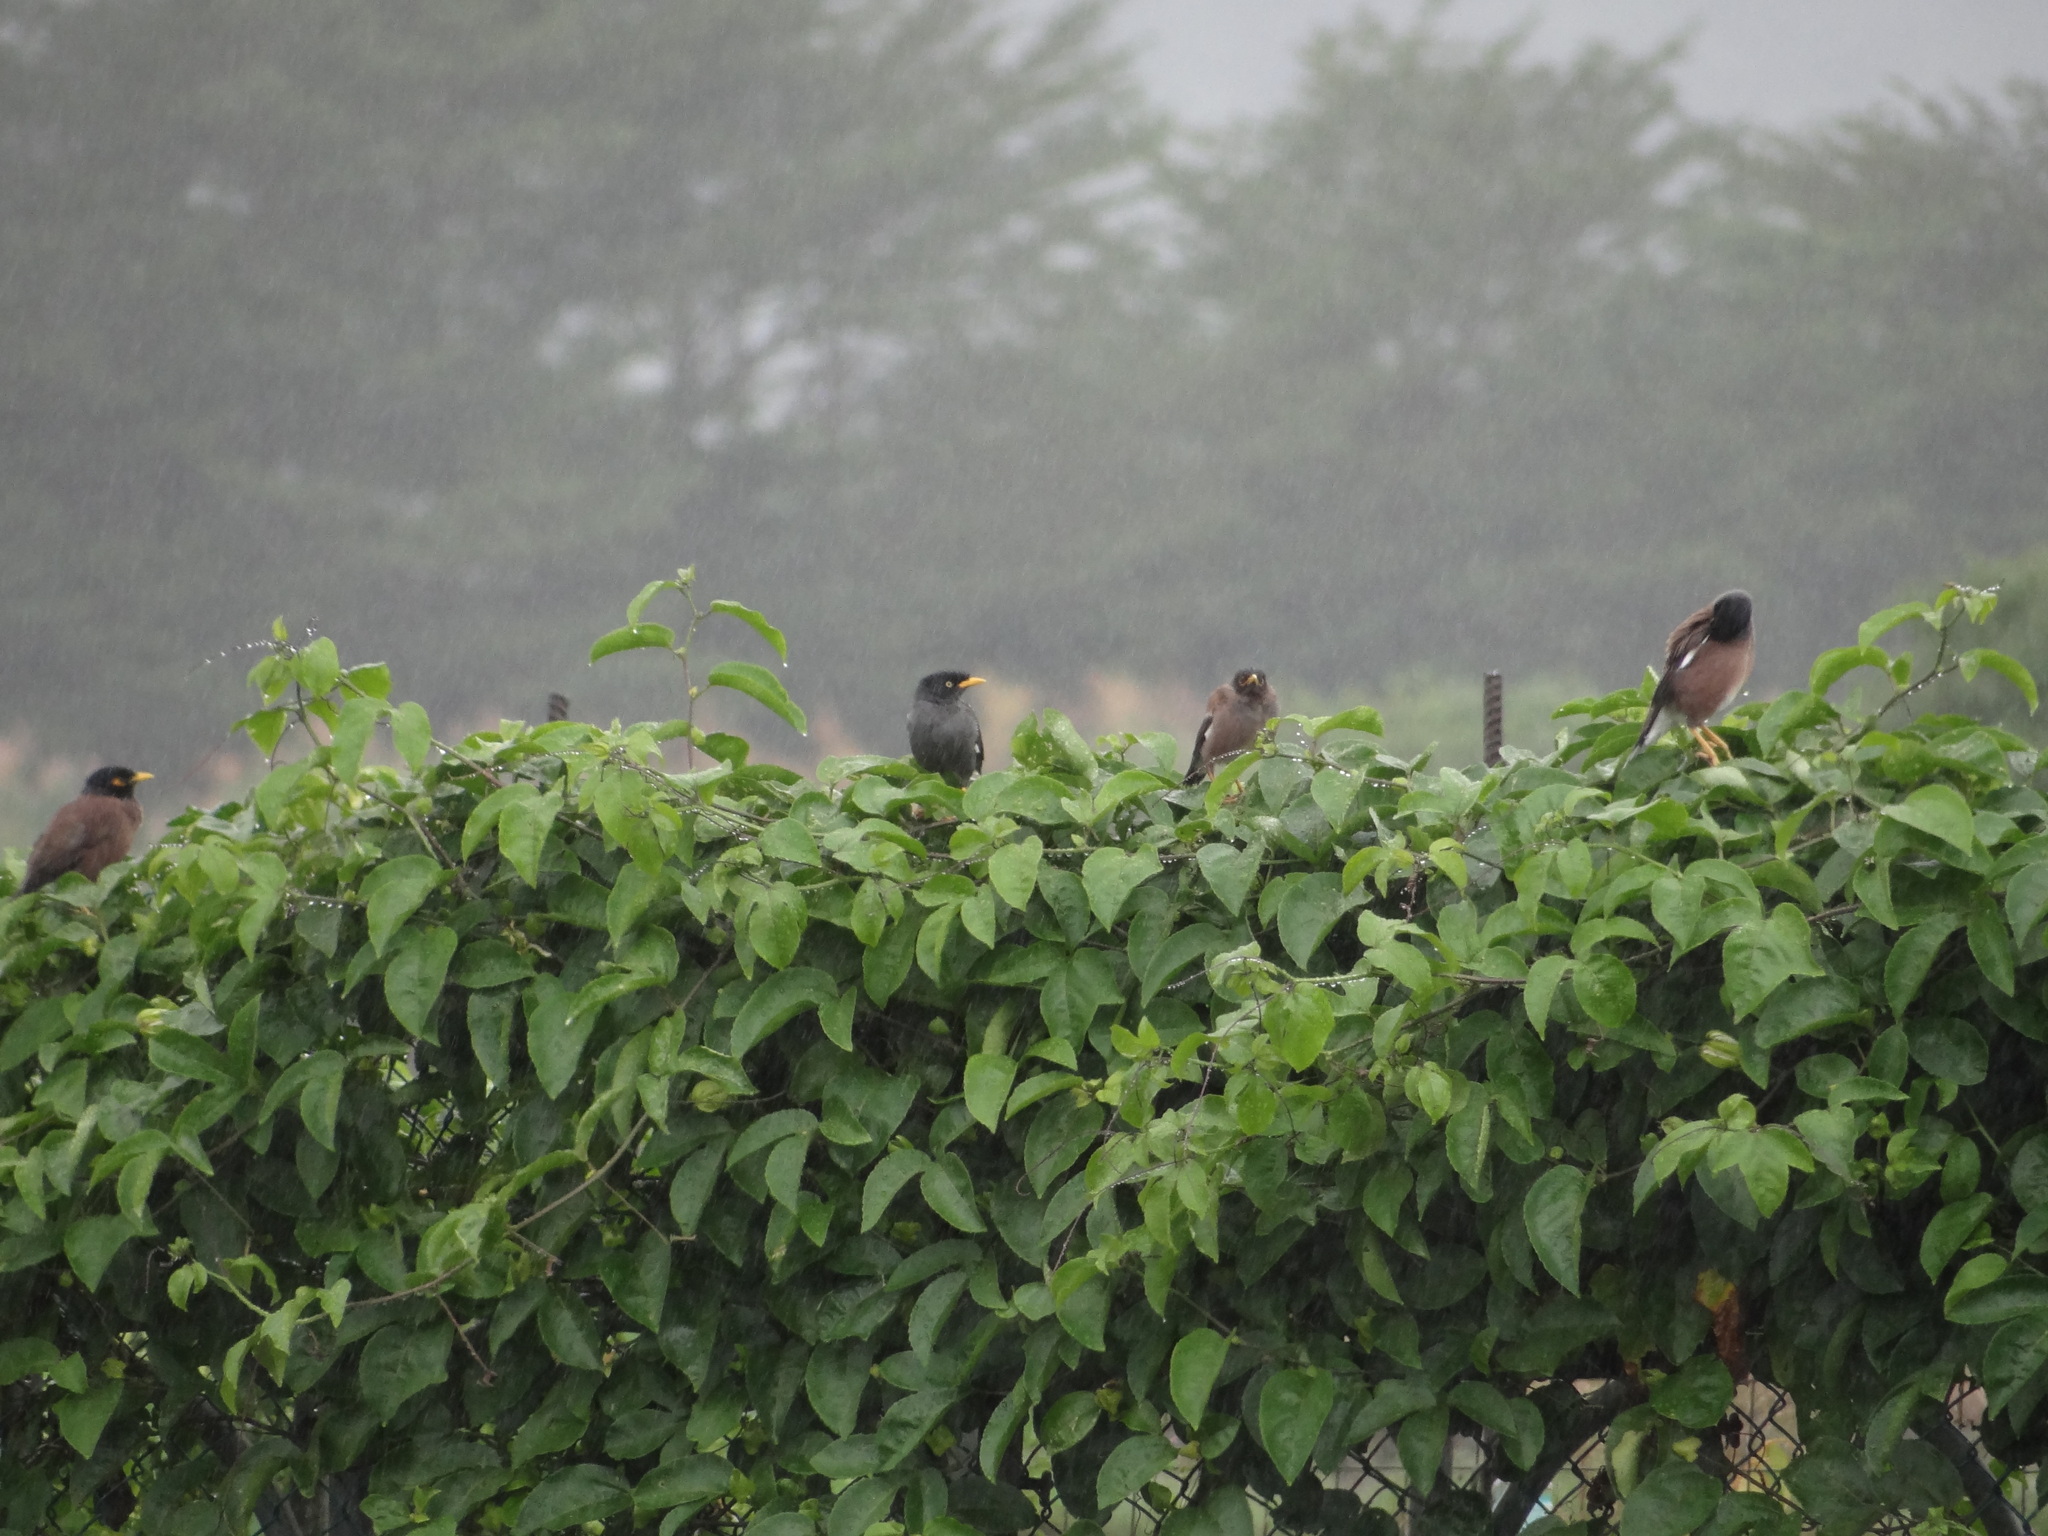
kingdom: Animalia
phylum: Chordata
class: Aves
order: Passeriformes
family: Sturnidae
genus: Acridotheres
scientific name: Acridotheres javanicus
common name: Javan myna
